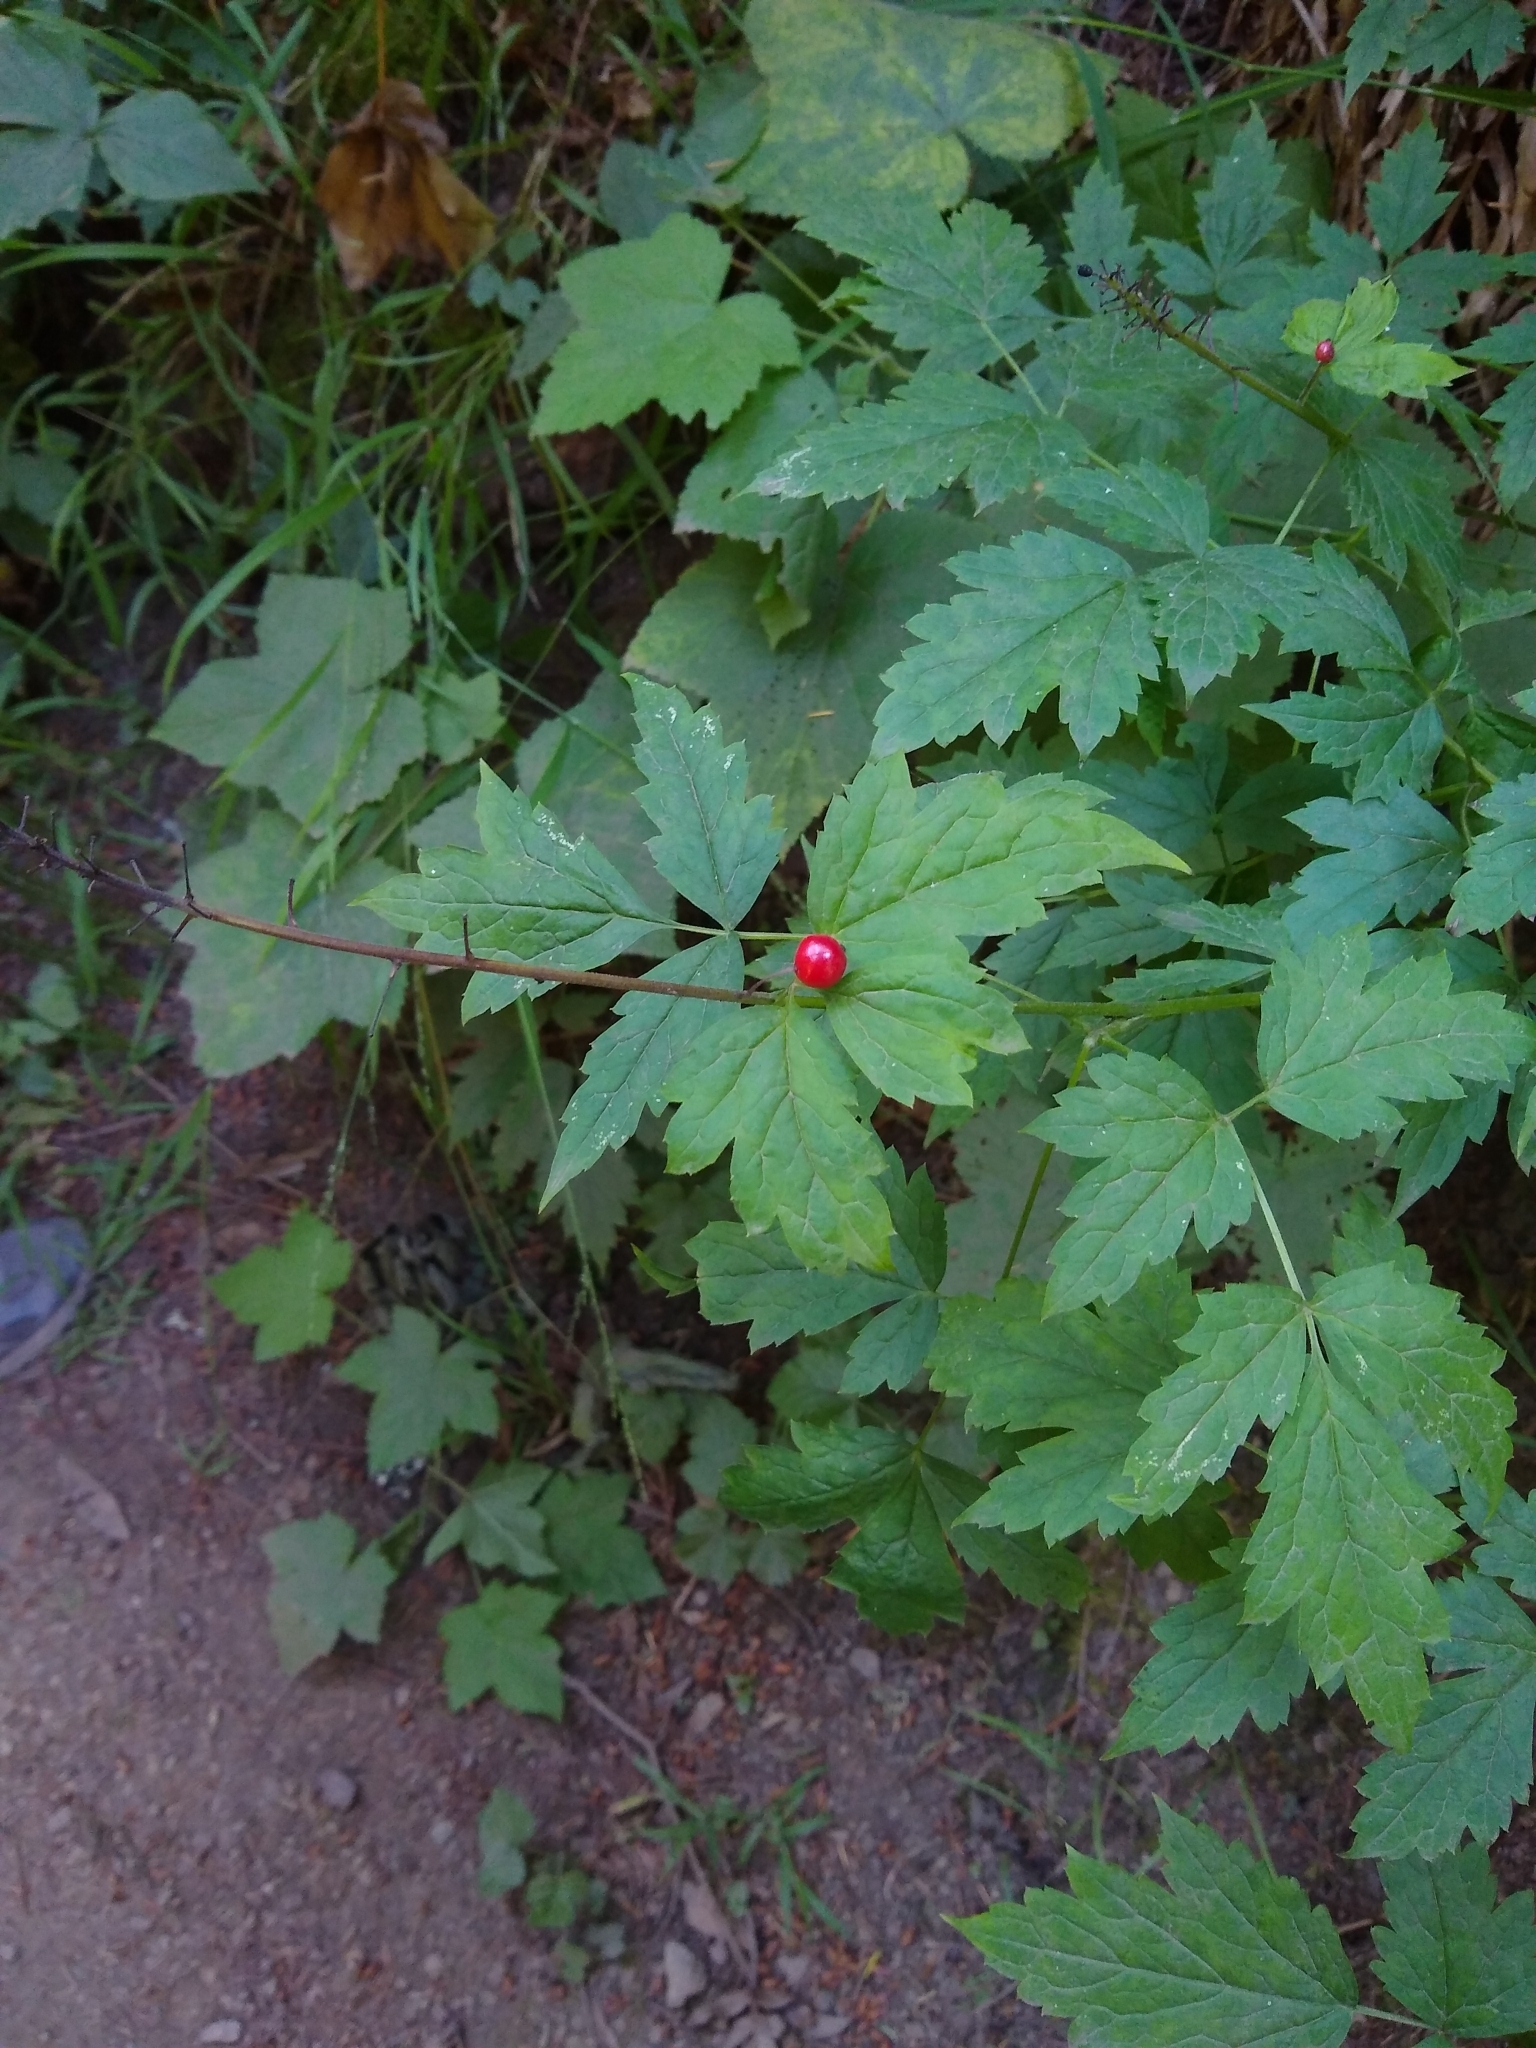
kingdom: Plantae
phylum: Tracheophyta
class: Magnoliopsida
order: Ranunculales
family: Ranunculaceae
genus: Actaea
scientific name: Actaea rubra
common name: Red baneberry
